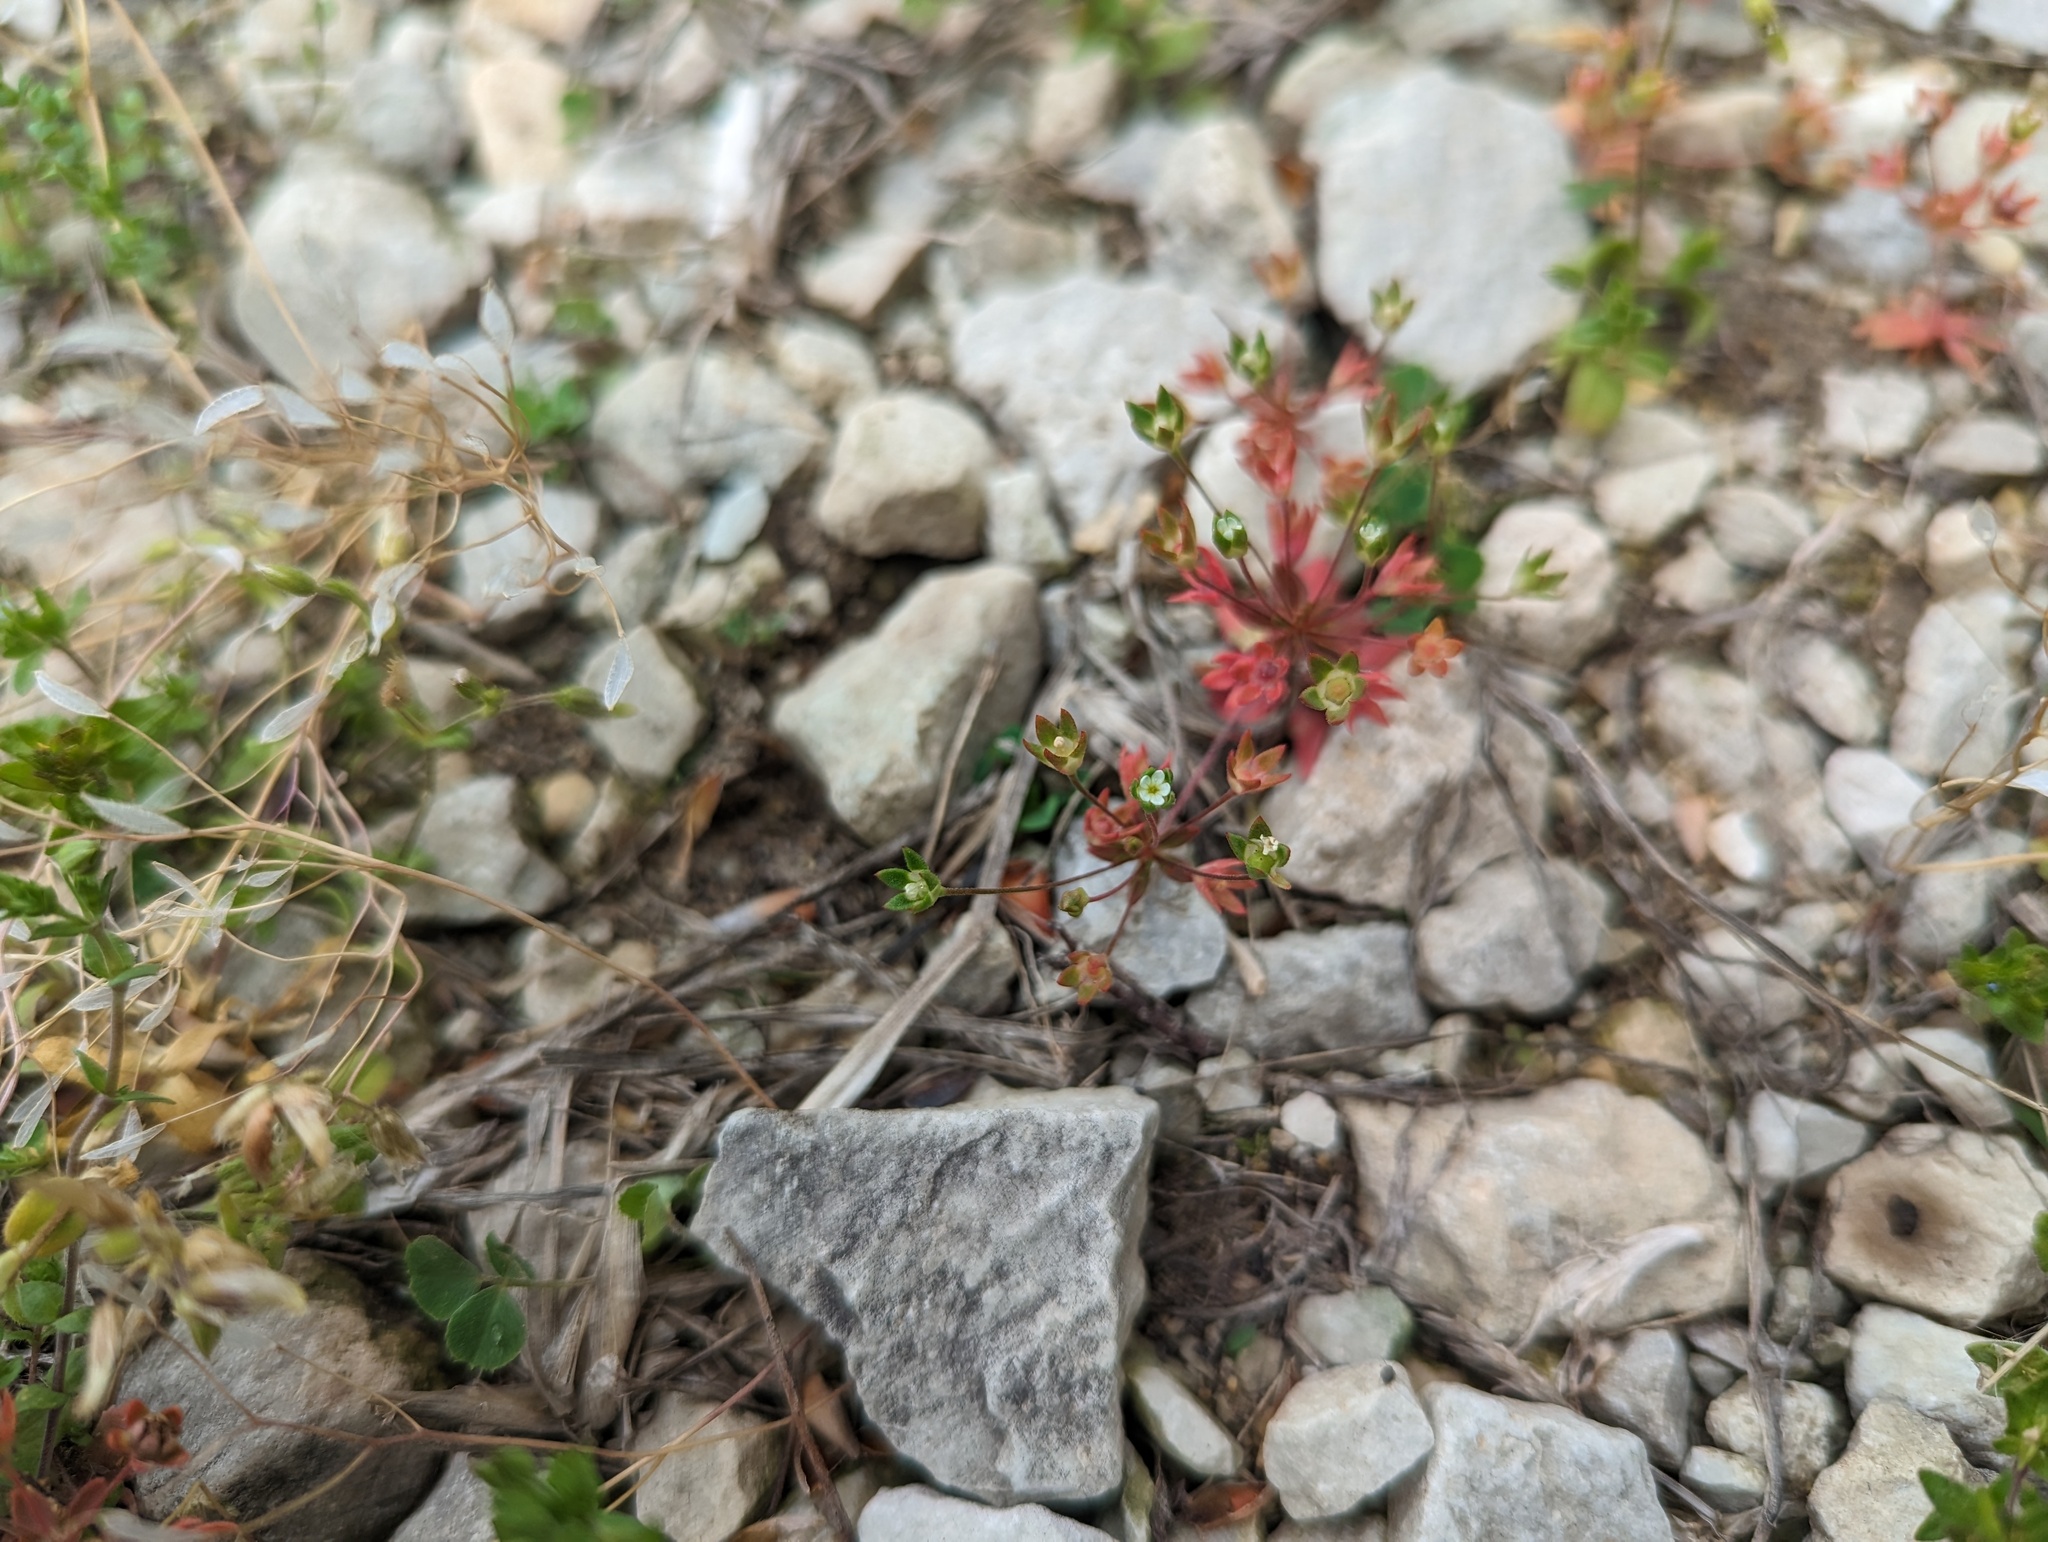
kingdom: Plantae
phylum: Tracheophyta
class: Magnoliopsida
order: Ericales
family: Primulaceae
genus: Androsace
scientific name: Androsace occidentalis
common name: West rock-jasmine
